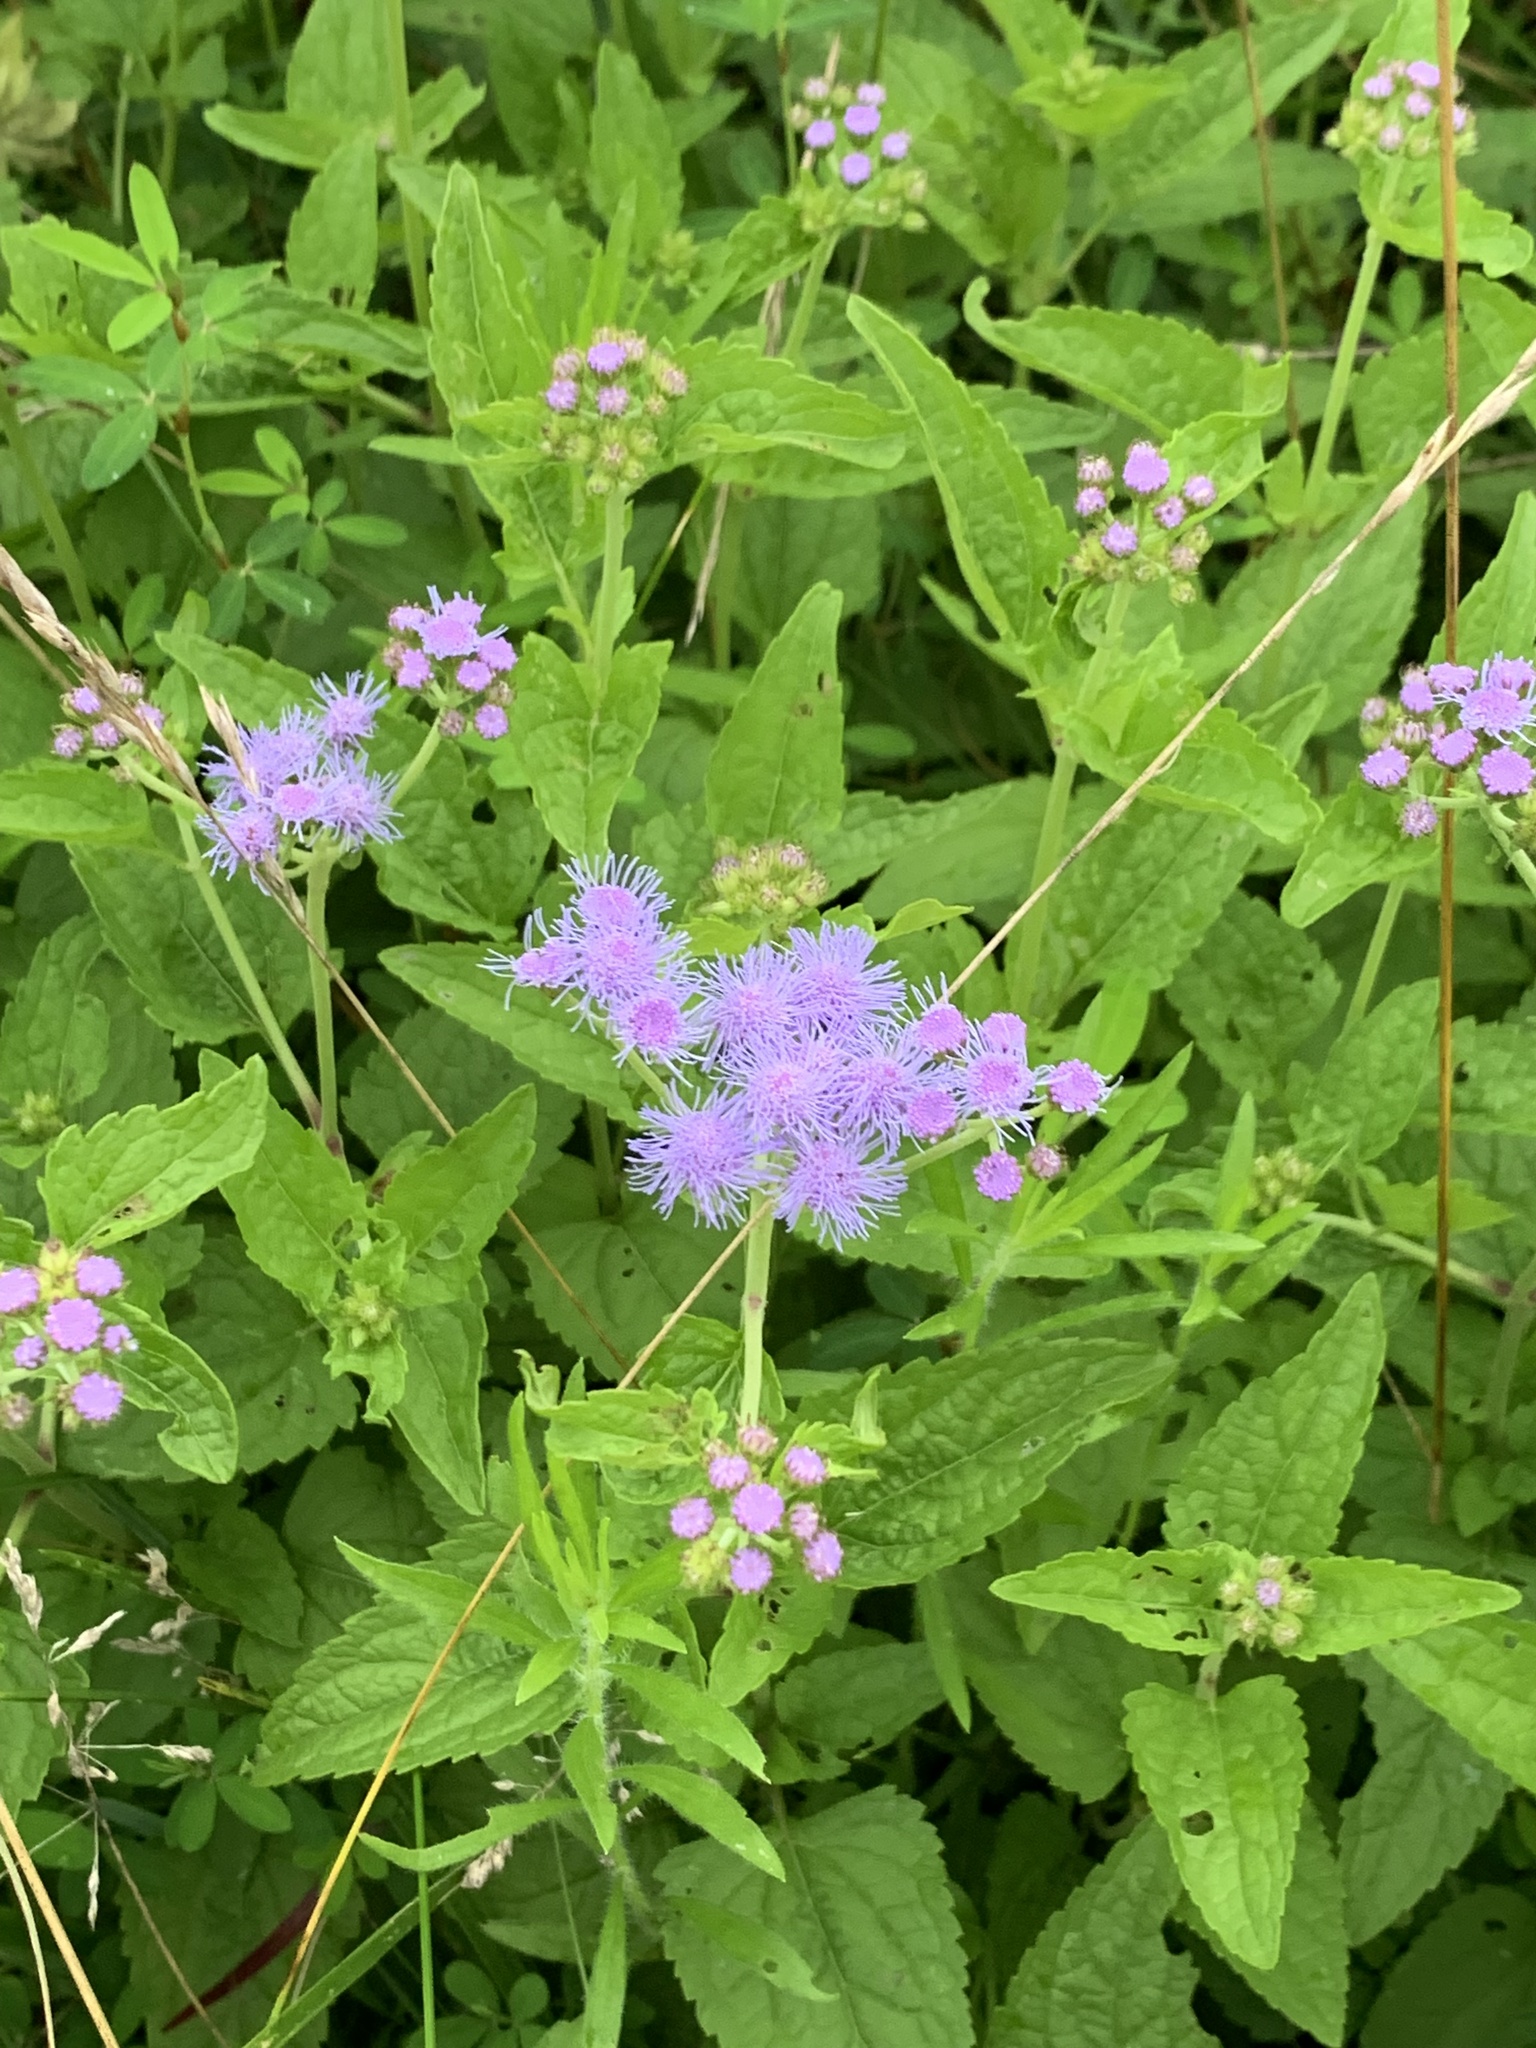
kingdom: Plantae
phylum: Tracheophyta
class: Magnoliopsida
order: Asterales
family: Asteraceae
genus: Conoclinium
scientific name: Conoclinium coelestinum
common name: Blue mistflower
